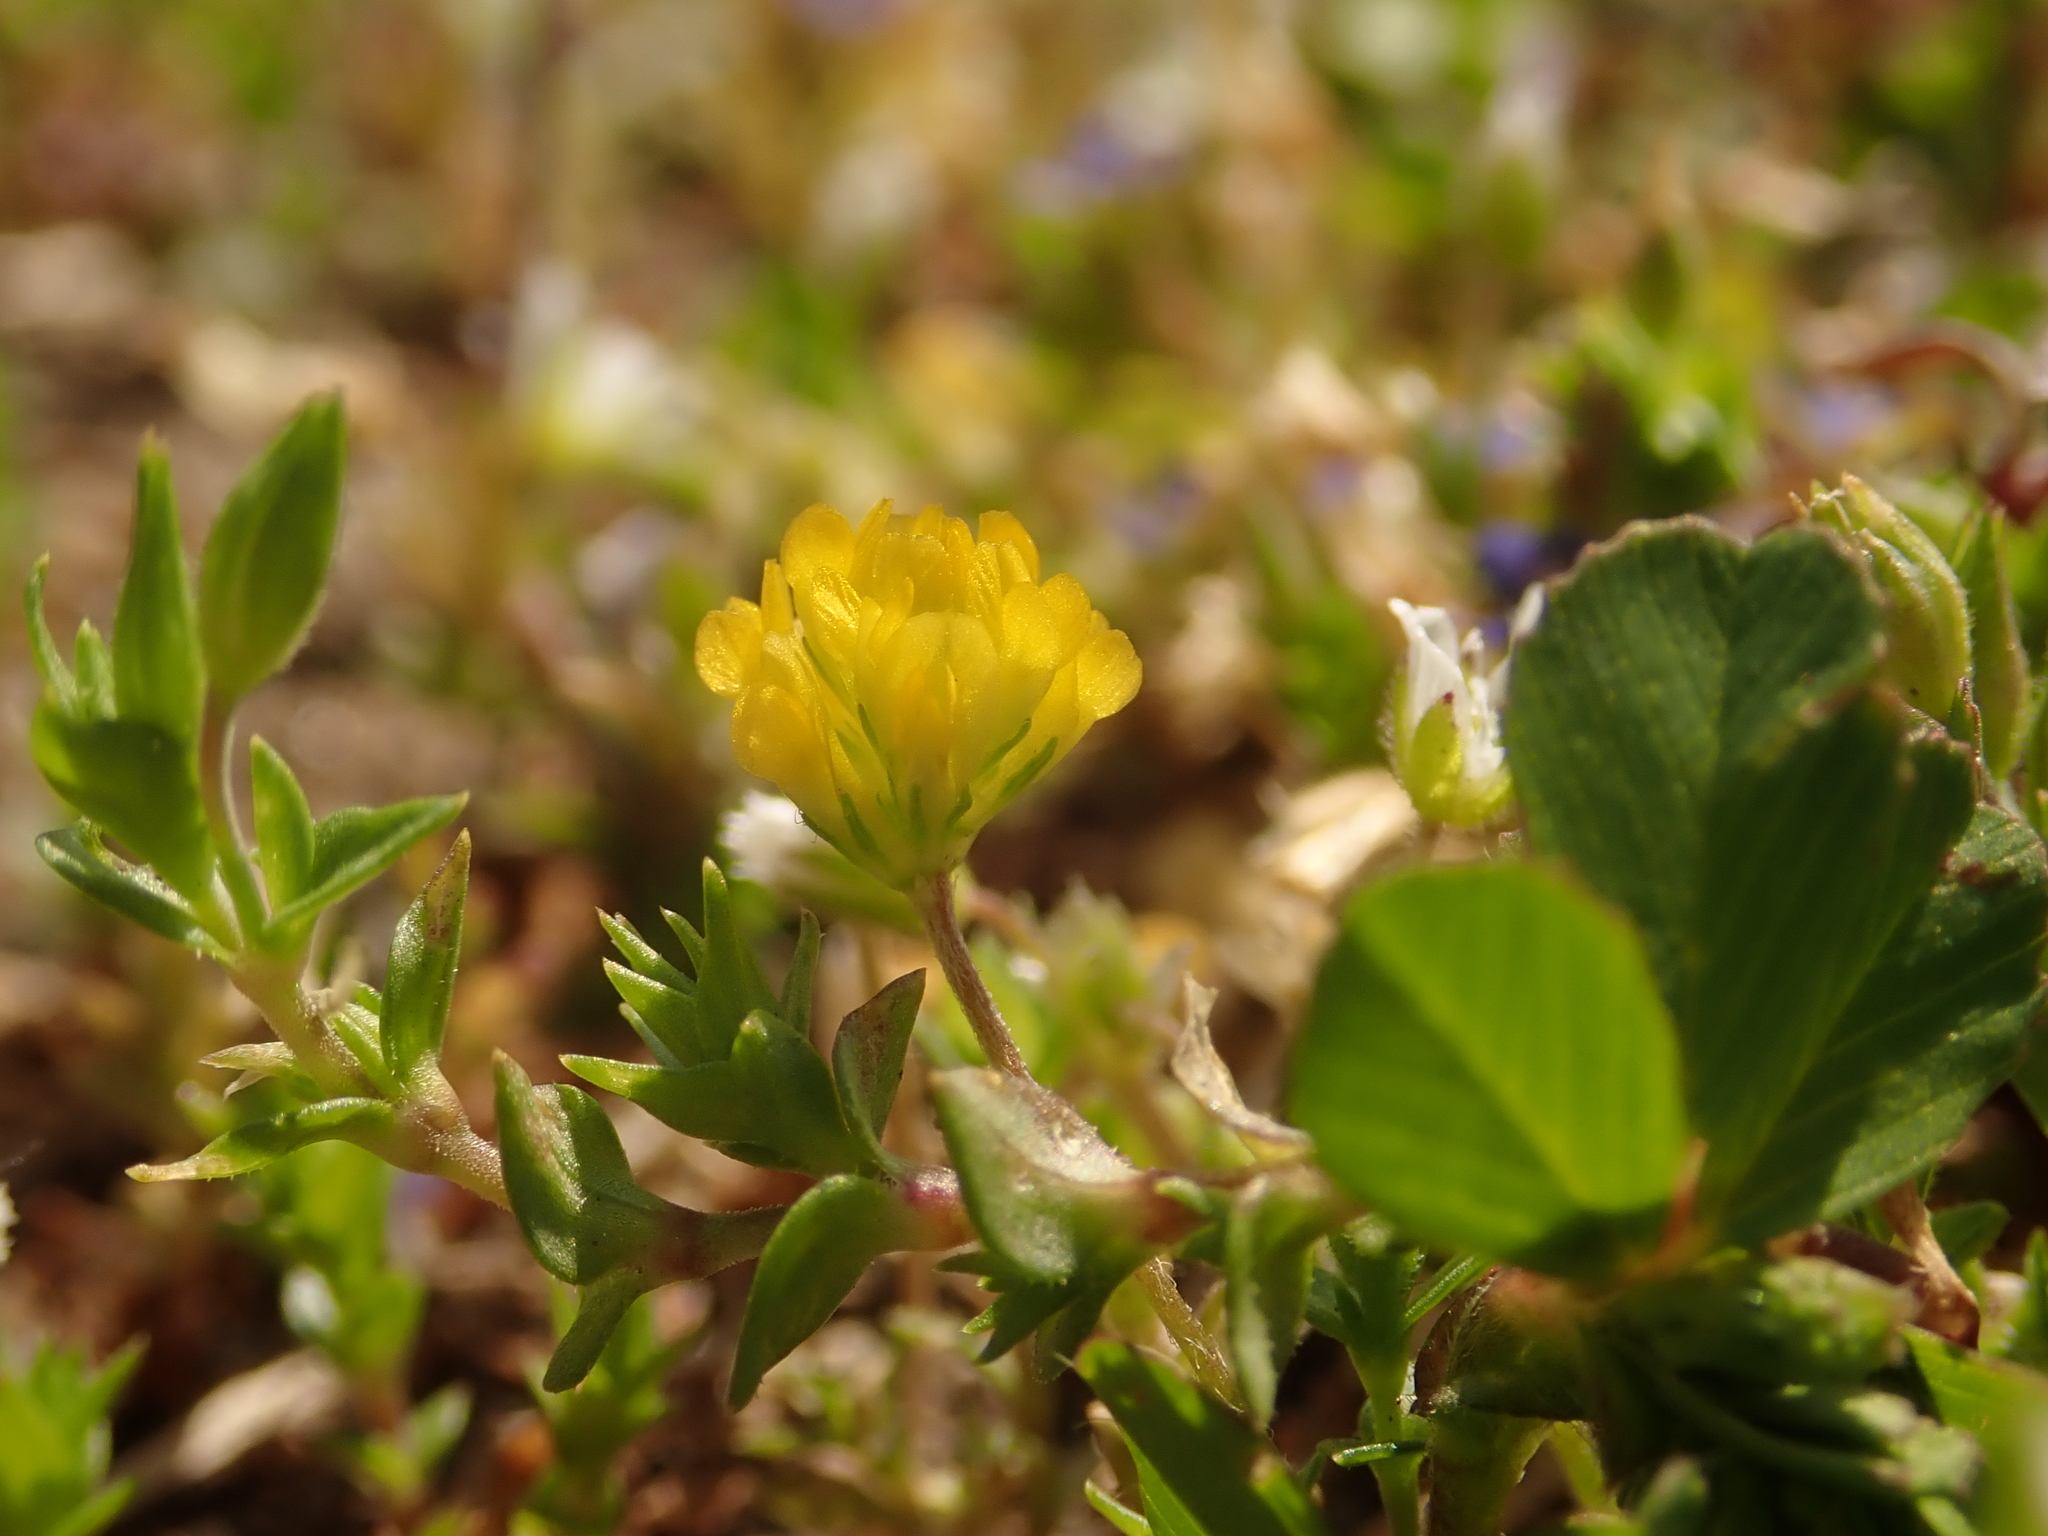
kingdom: Plantae
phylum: Tracheophyta
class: Magnoliopsida
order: Fabales
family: Fabaceae
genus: Trifolium
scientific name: Trifolium dubium
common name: Suckling clover
